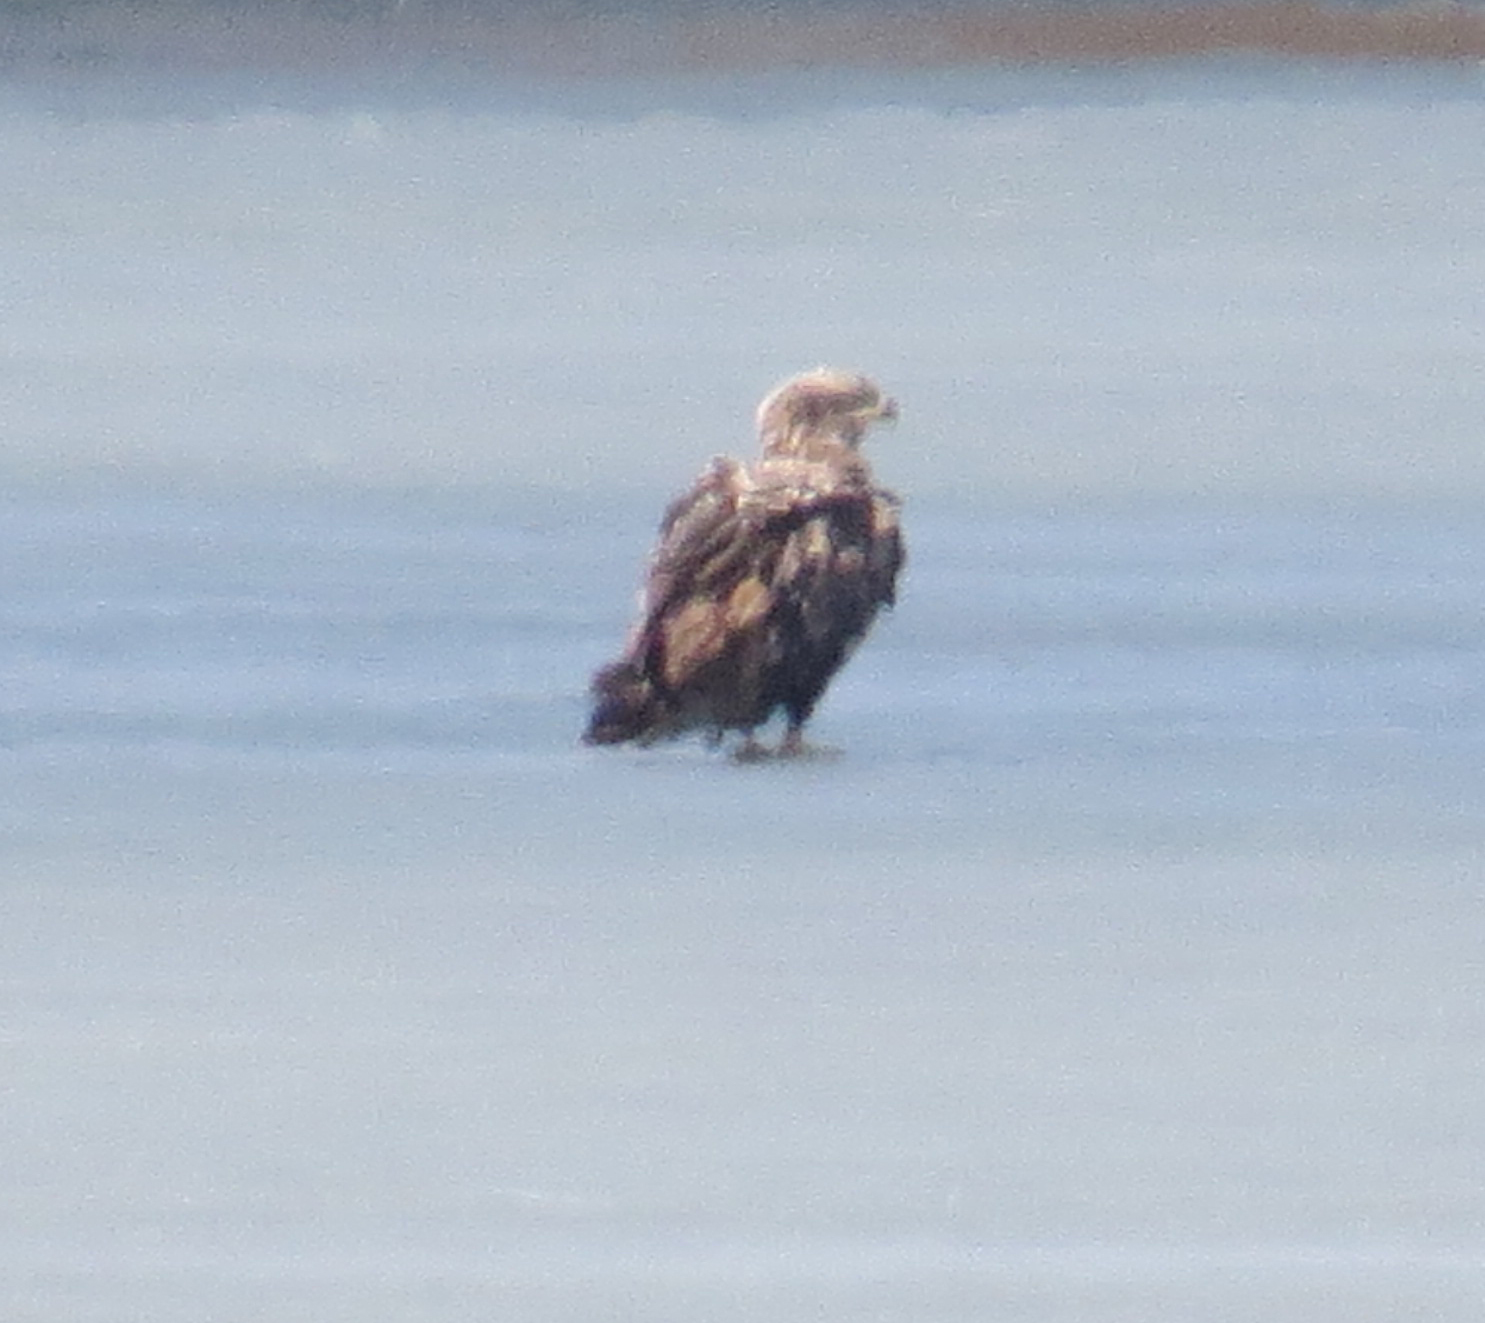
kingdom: Animalia
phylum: Chordata
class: Aves
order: Accipitriformes
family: Accipitridae
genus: Haliaeetus
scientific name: Haliaeetus leucocephalus
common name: Bald eagle
